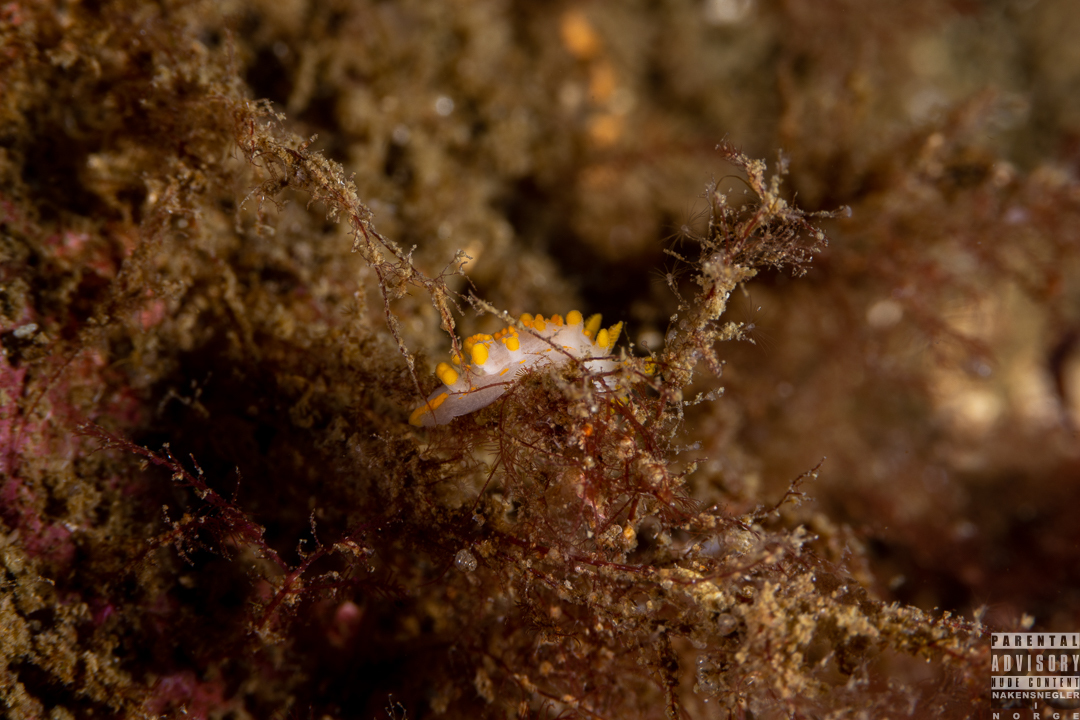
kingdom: Animalia
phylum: Mollusca
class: Gastropoda
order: Nudibranchia
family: Polyceridae
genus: Limacia
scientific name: Limacia clavigera
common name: Orange-clubbed sea slug
